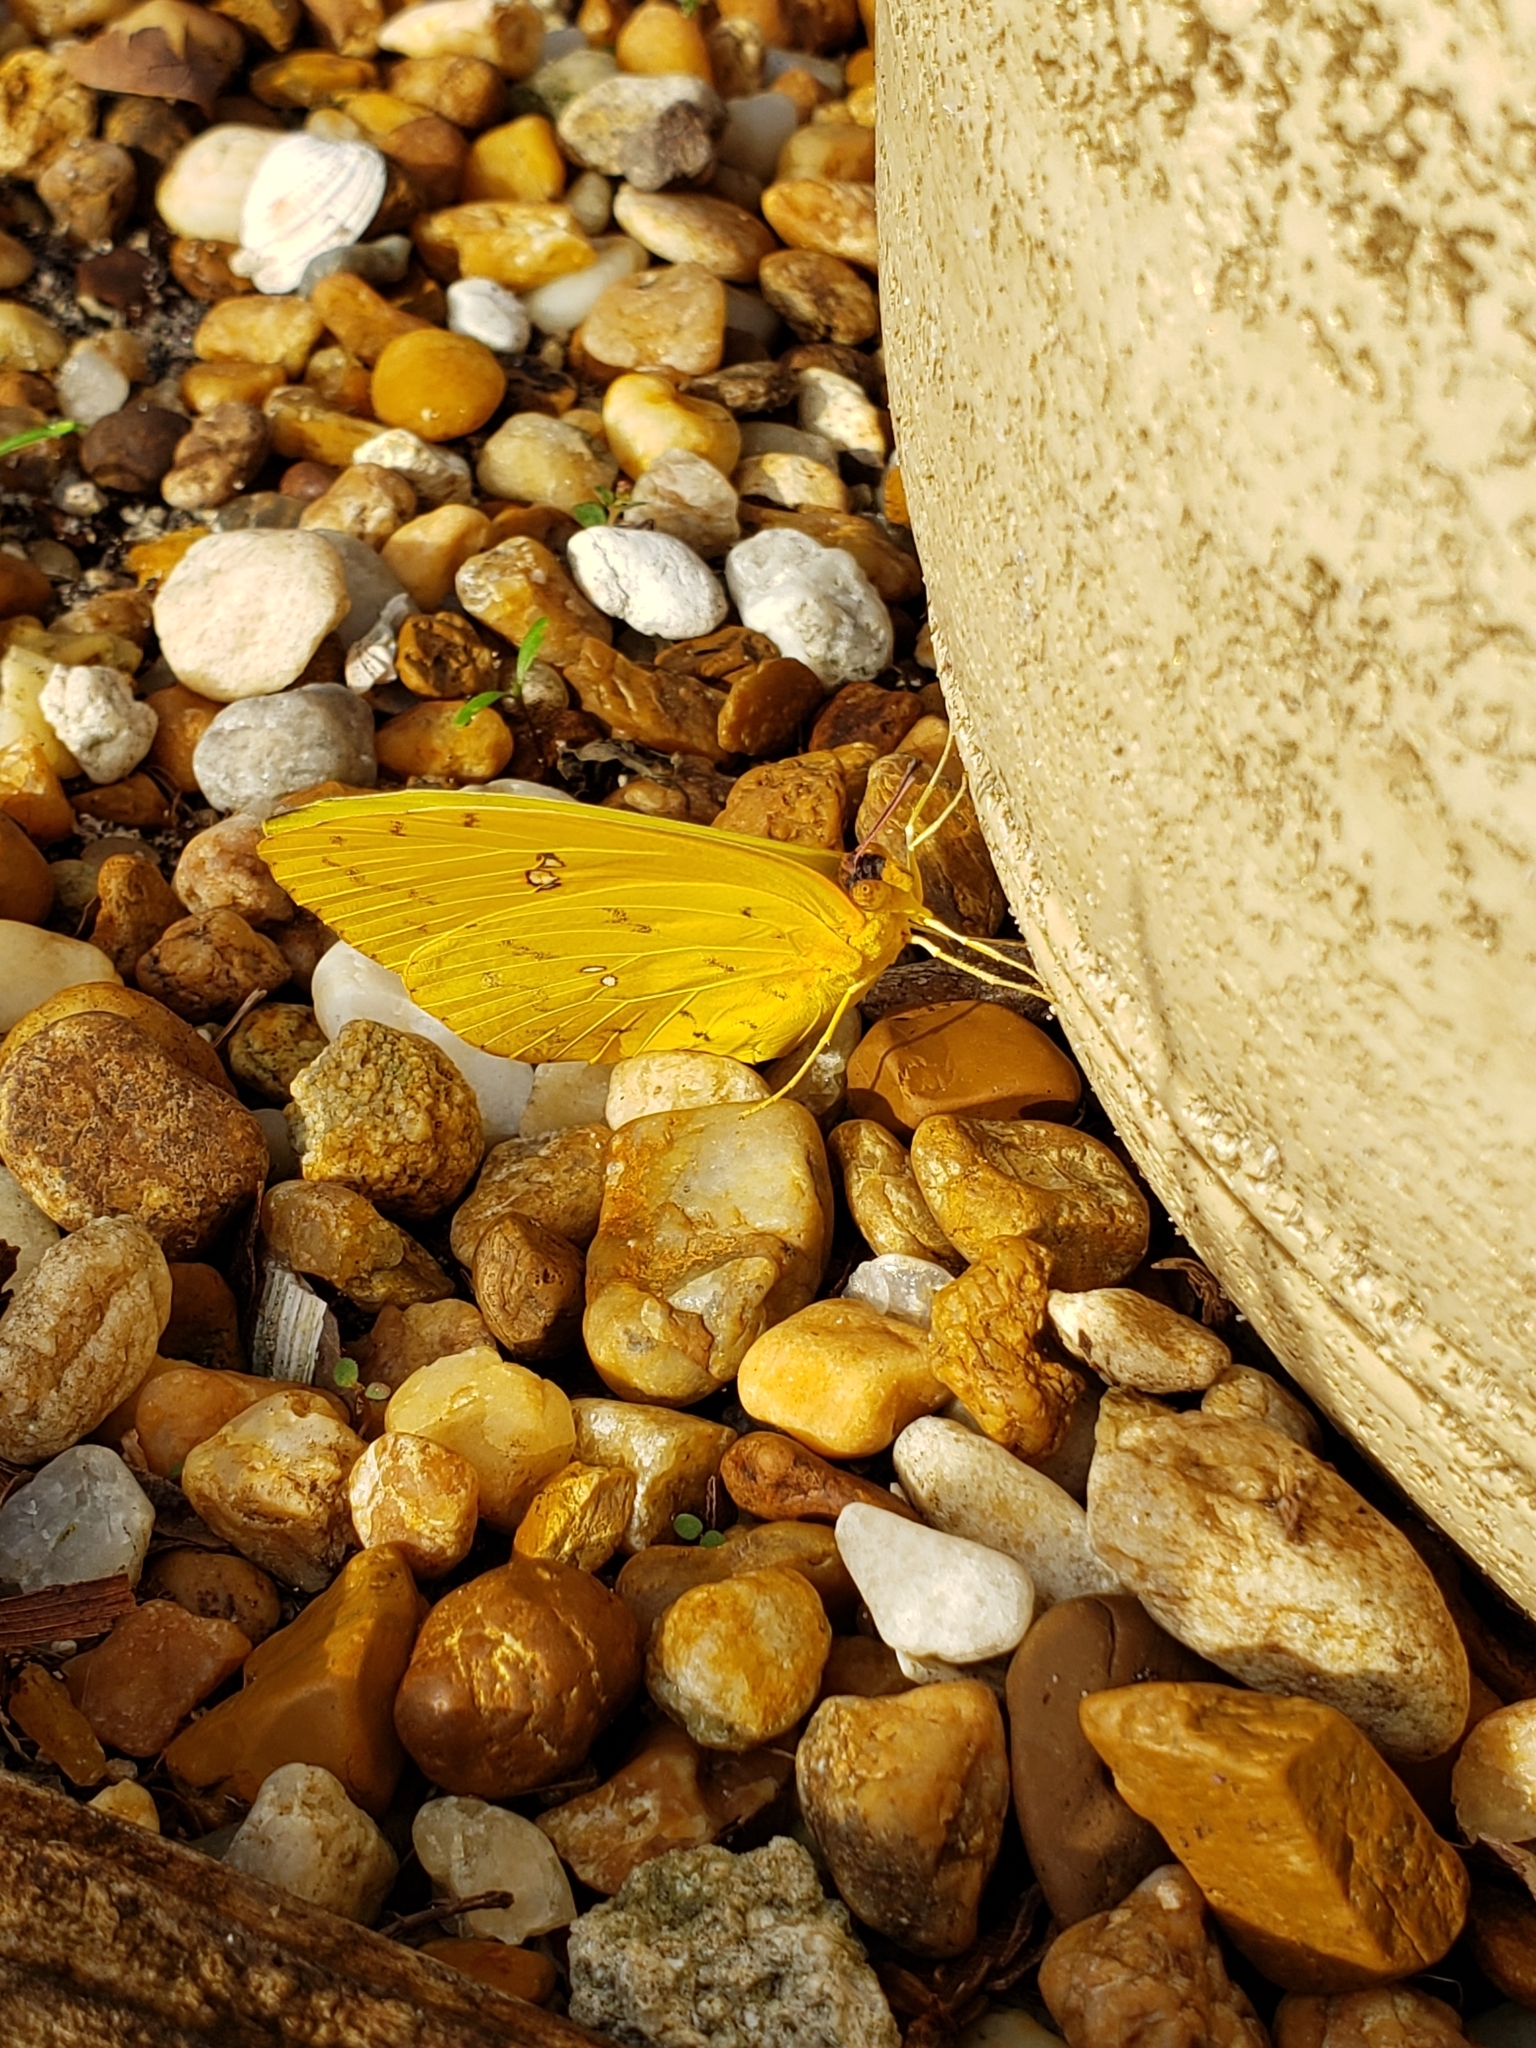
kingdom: Animalia
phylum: Arthropoda
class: Insecta
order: Lepidoptera
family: Pieridae
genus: Phoebis
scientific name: Phoebis philea
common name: Orange-barred giant sulphur
